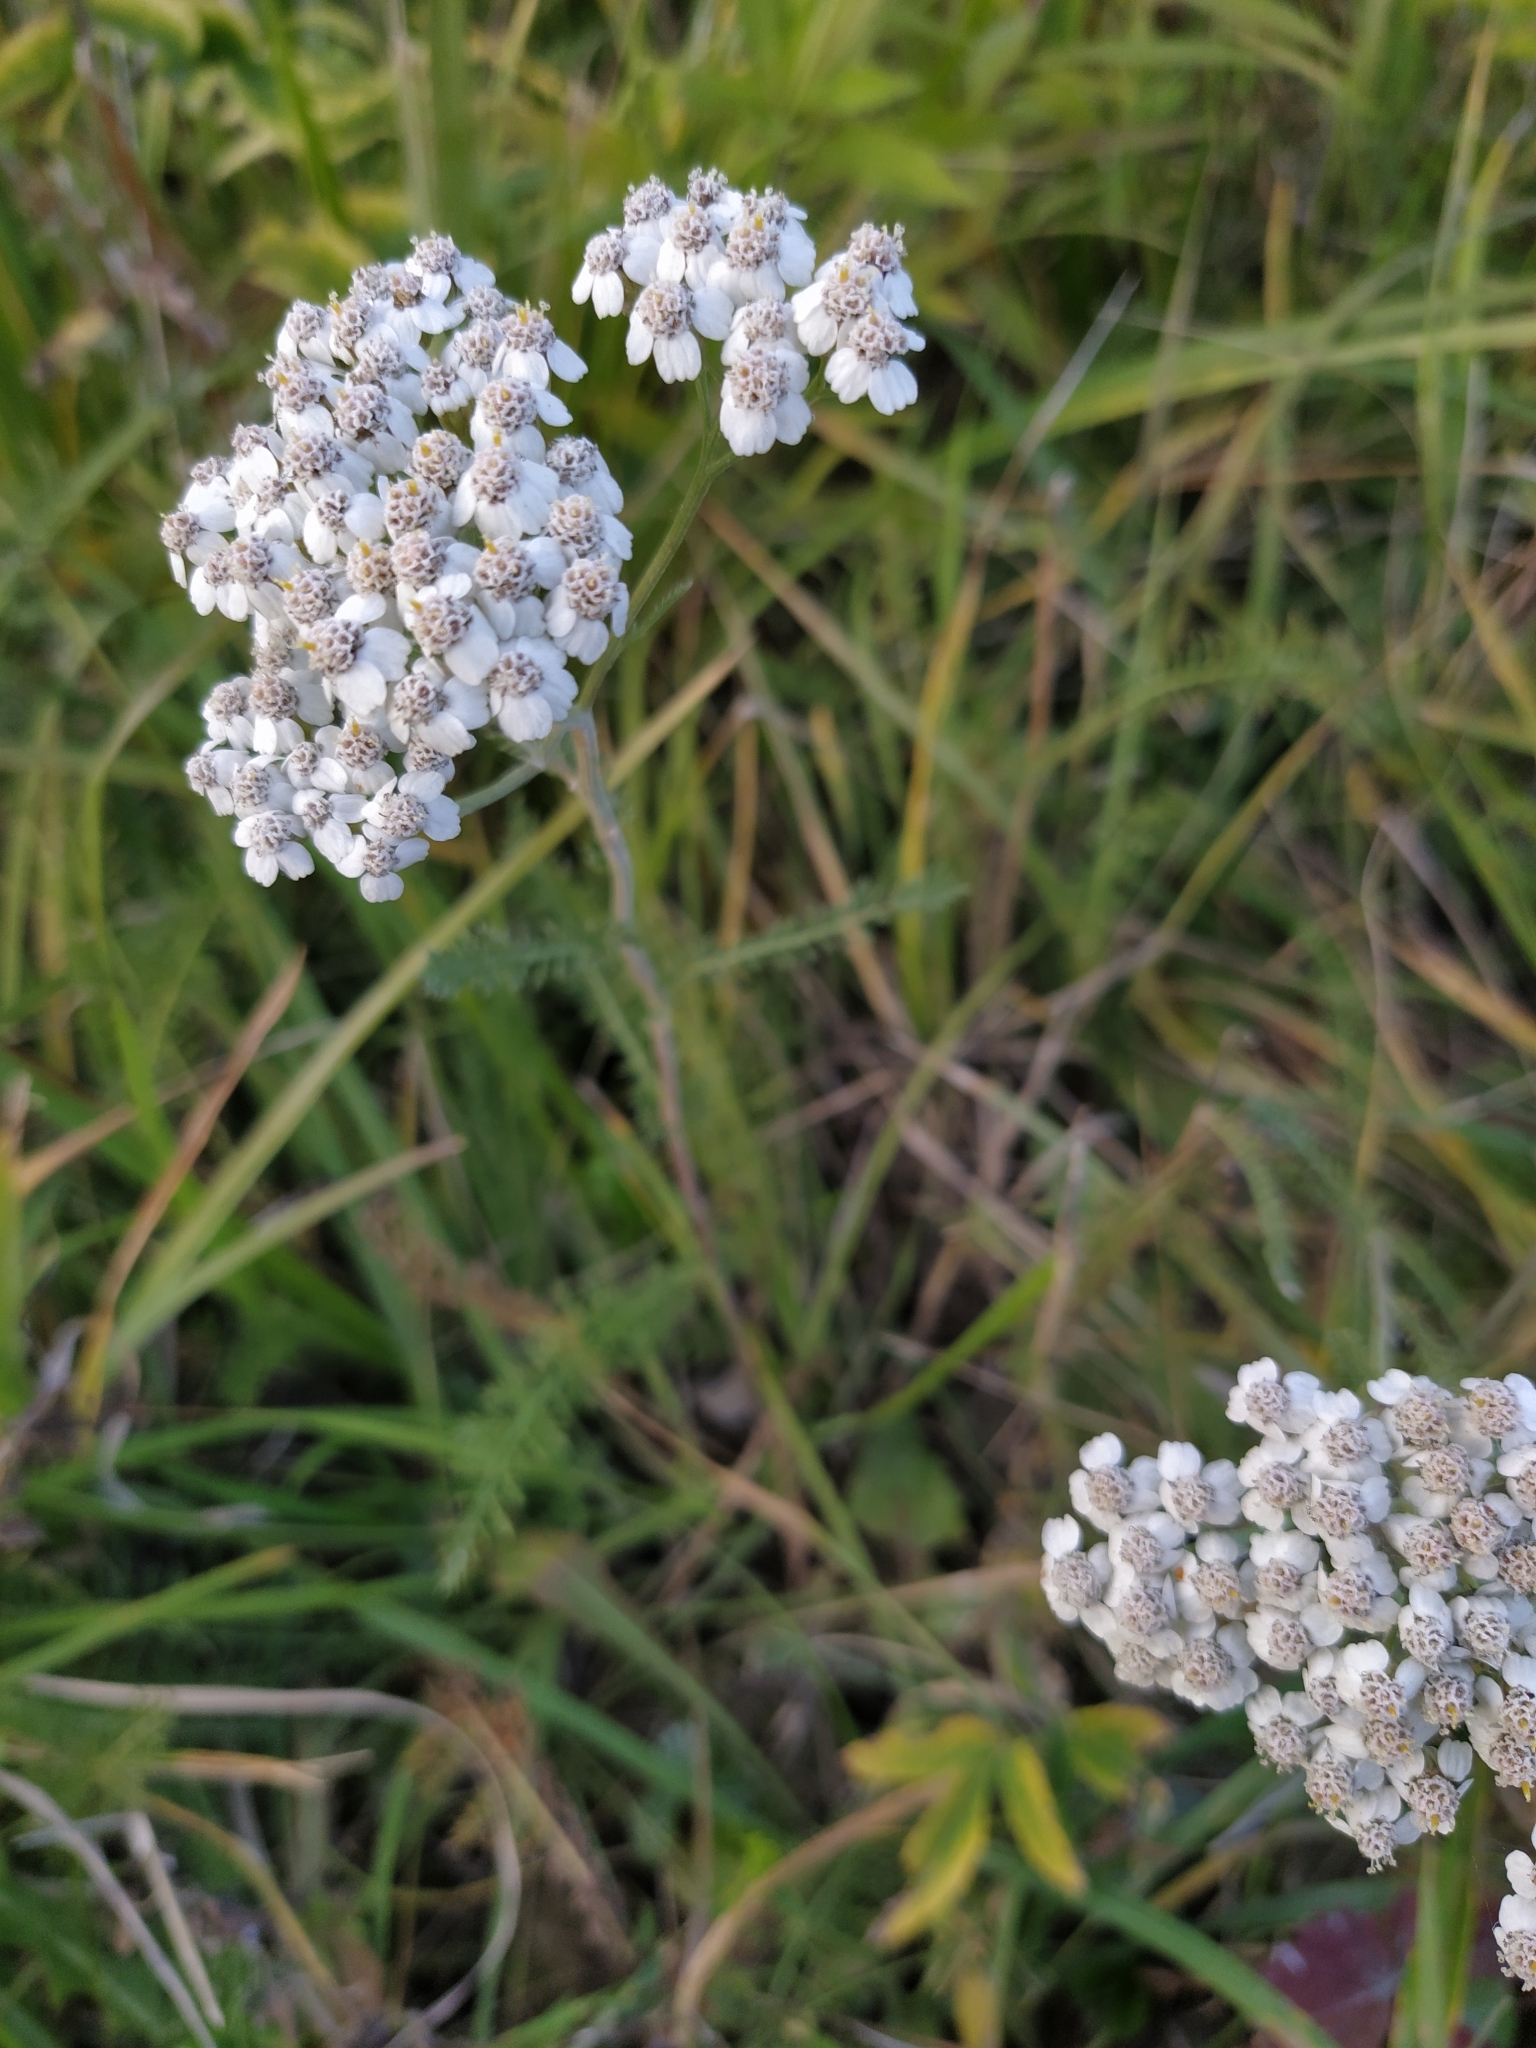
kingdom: Plantae
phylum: Tracheophyta
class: Magnoliopsida
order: Asterales
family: Asteraceae
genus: Achillea
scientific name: Achillea millefolium
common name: Yarrow
